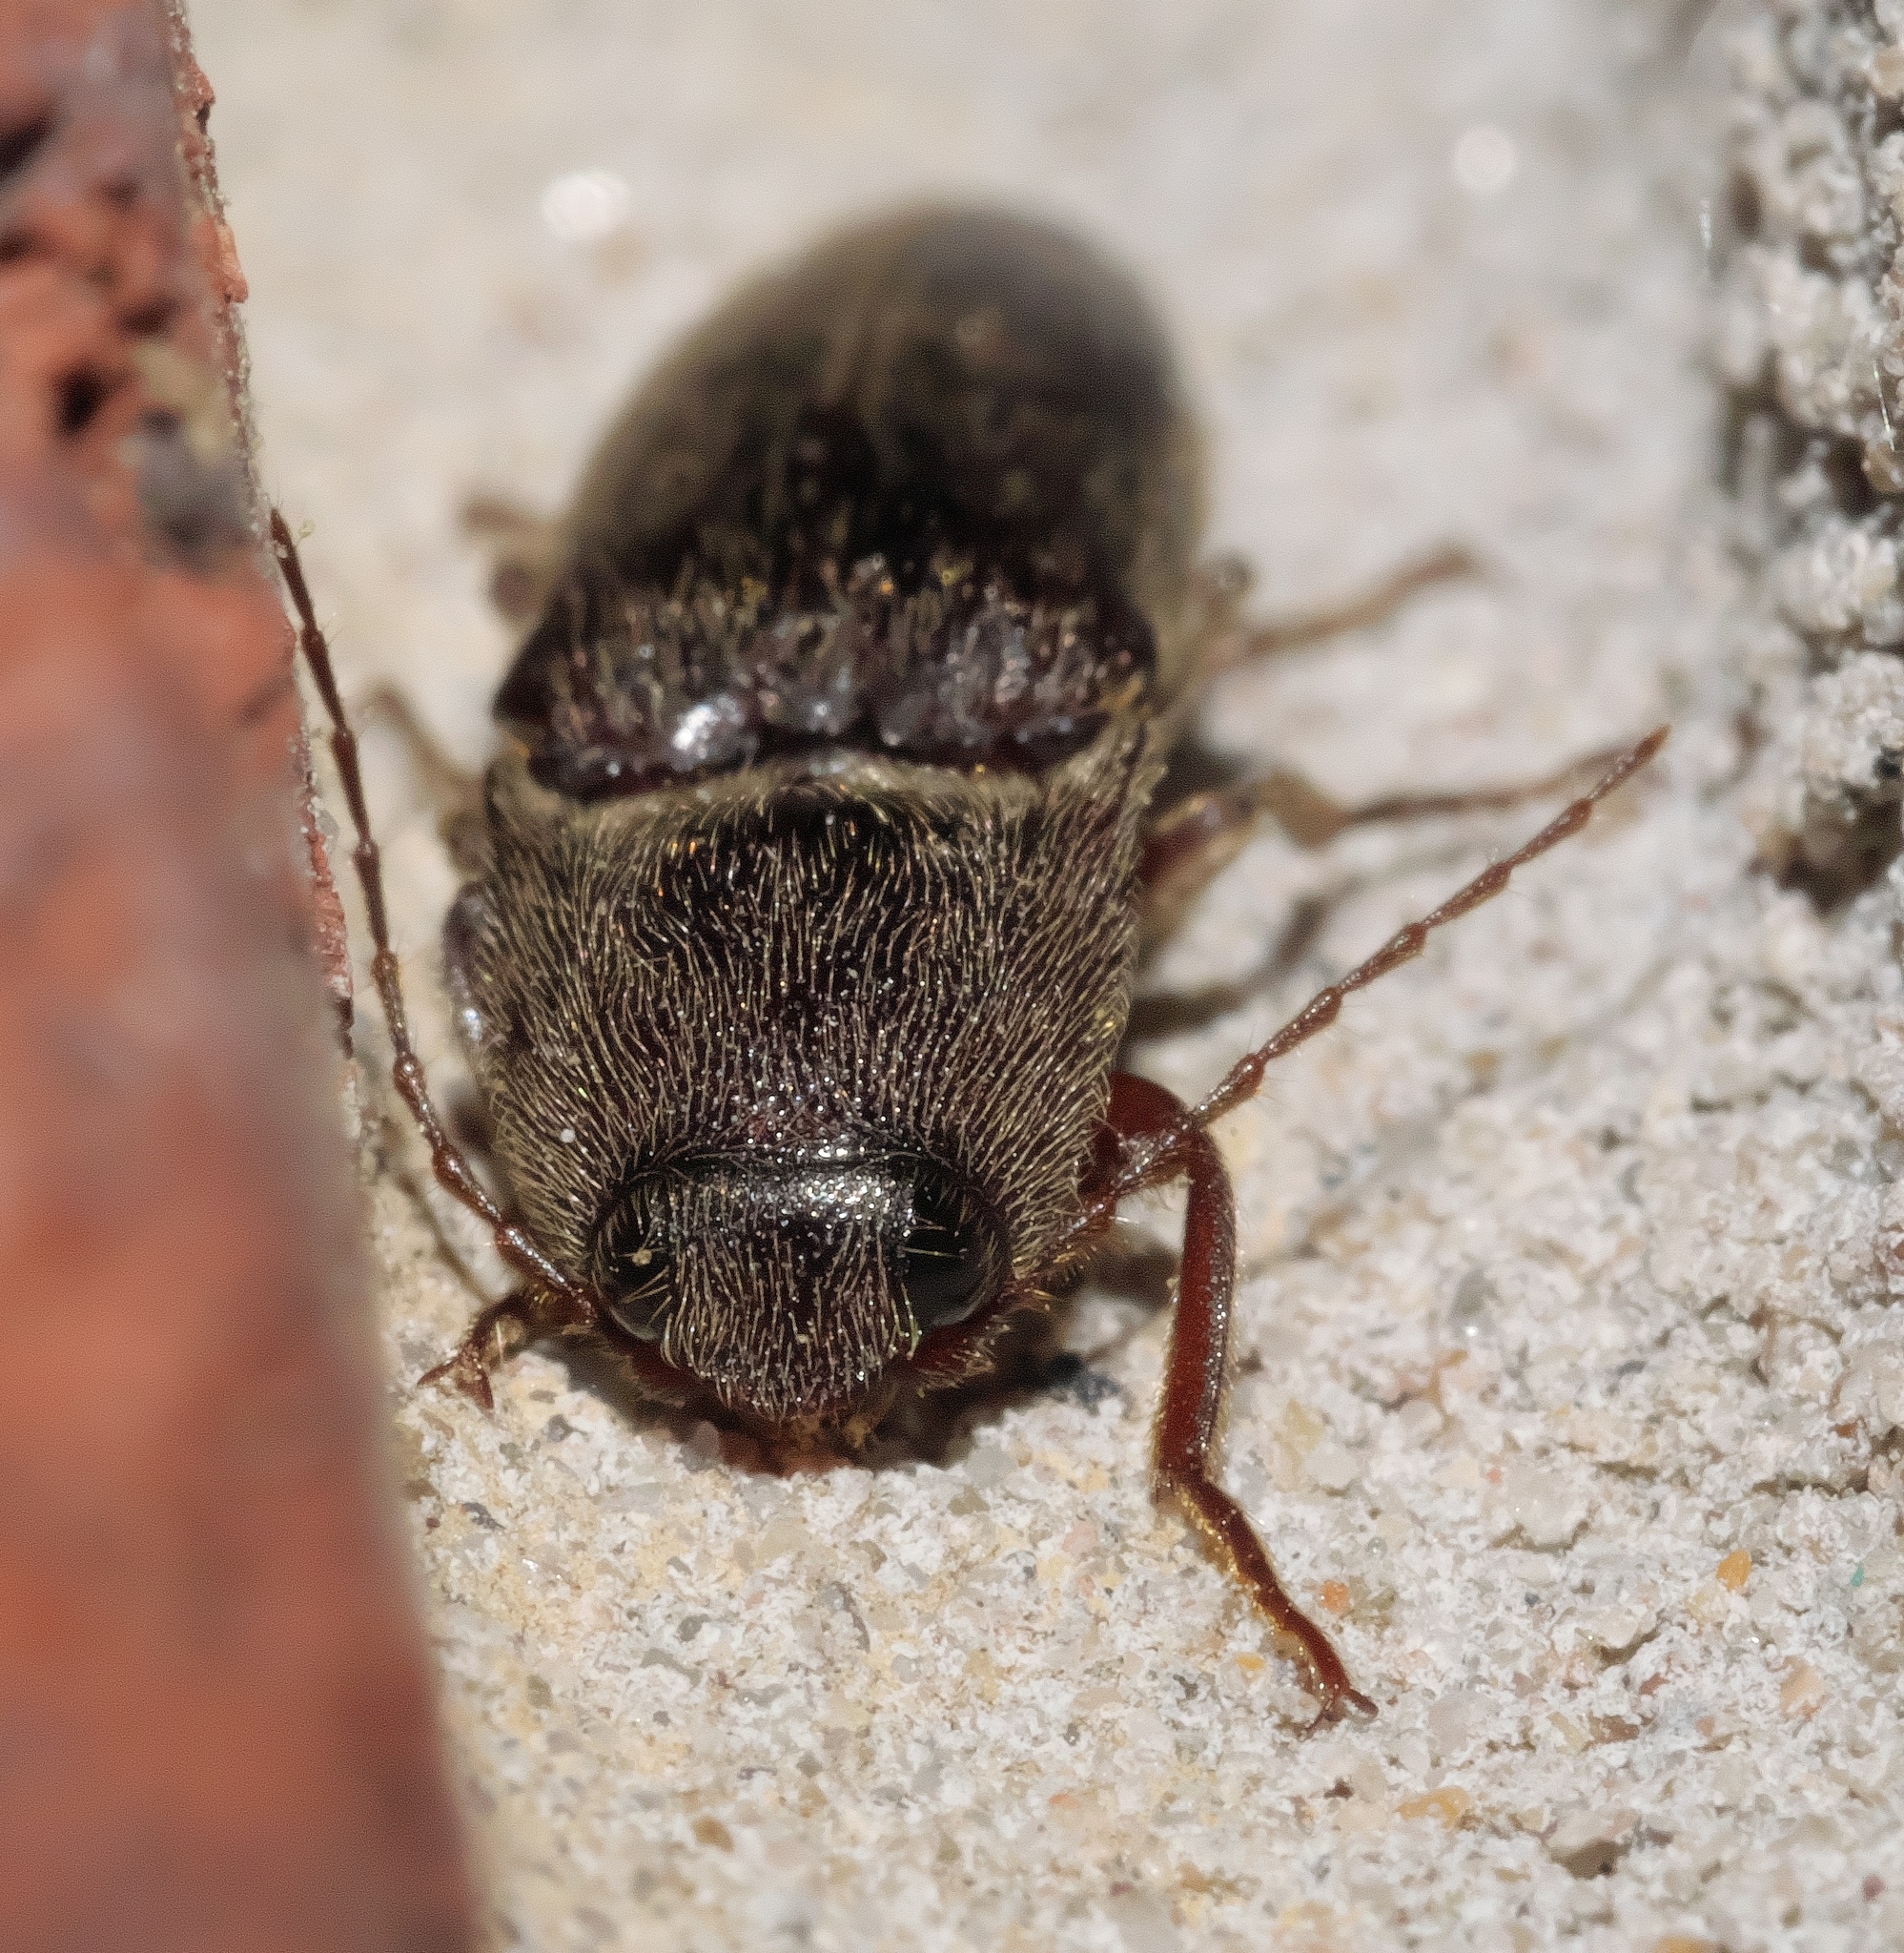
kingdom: Animalia
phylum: Arthropoda
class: Insecta
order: Coleoptera
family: Elateridae
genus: Melanotus
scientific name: Melanotus
